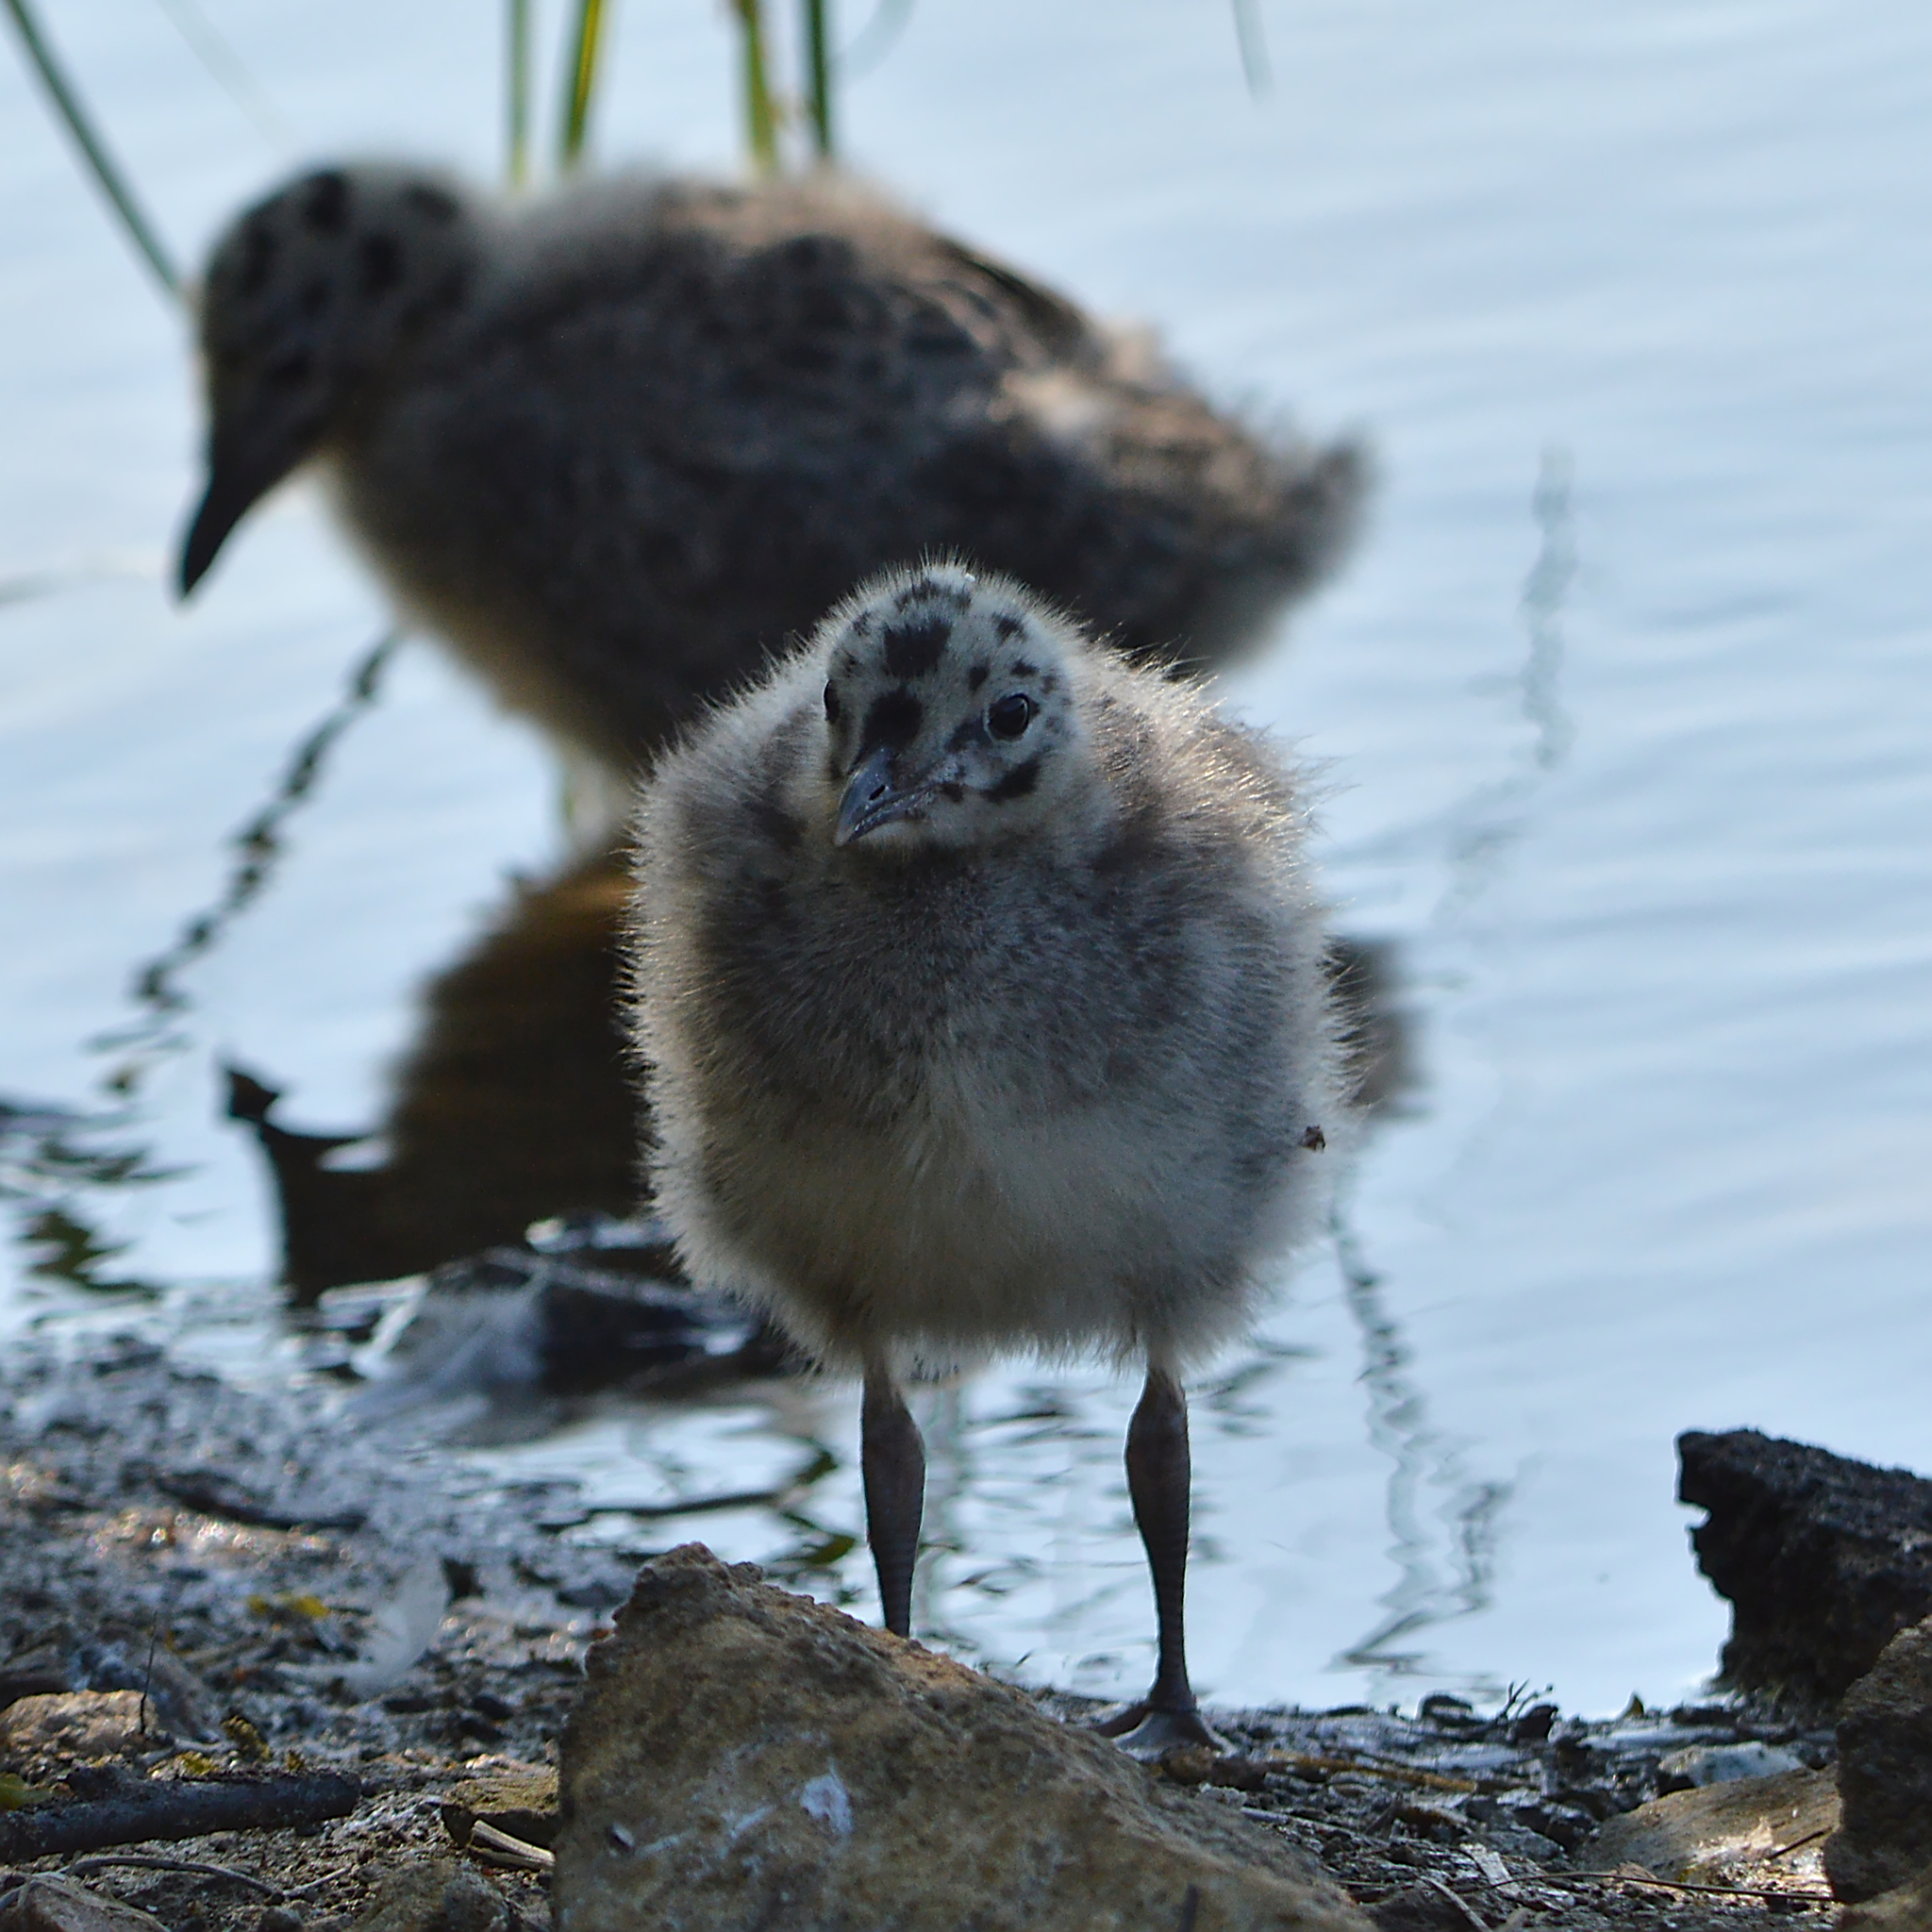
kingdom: Animalia
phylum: Chordata
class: Aves
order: Charadriiformes
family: Laridae
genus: Larus
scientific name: Larus canus
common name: Mew gull
